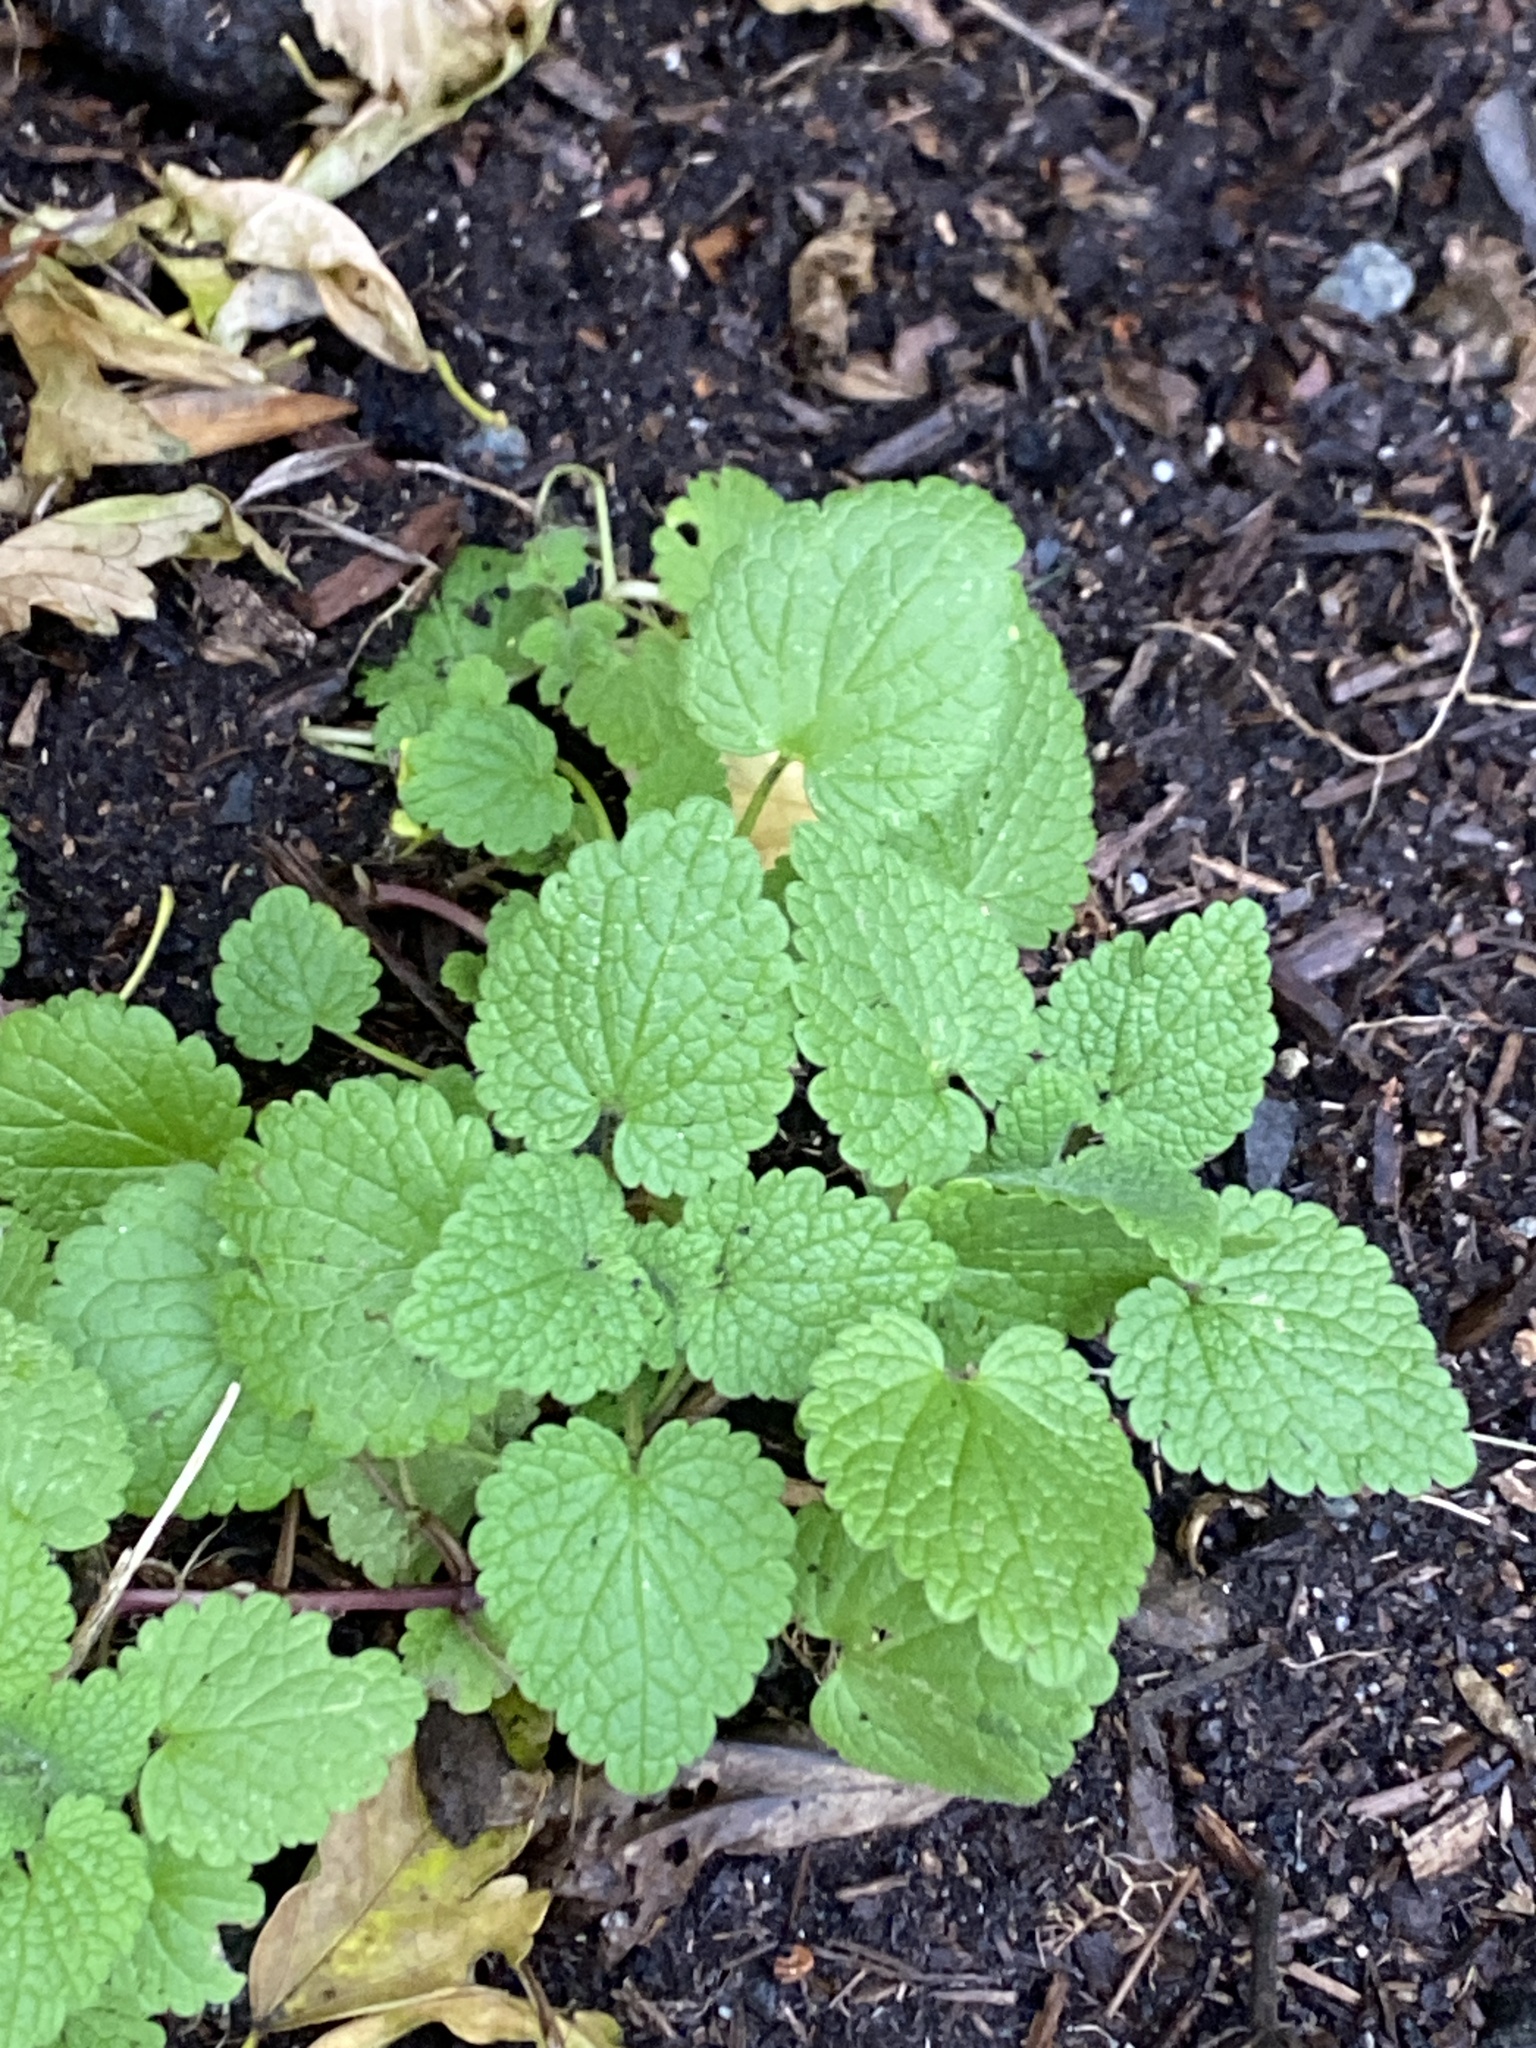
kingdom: Plantae
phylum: Tracheophyta
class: Magnoliopsida
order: Lamiales
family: Lamiaceae
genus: Lamium
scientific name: Lamium purpureum
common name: Red dead-nettle
